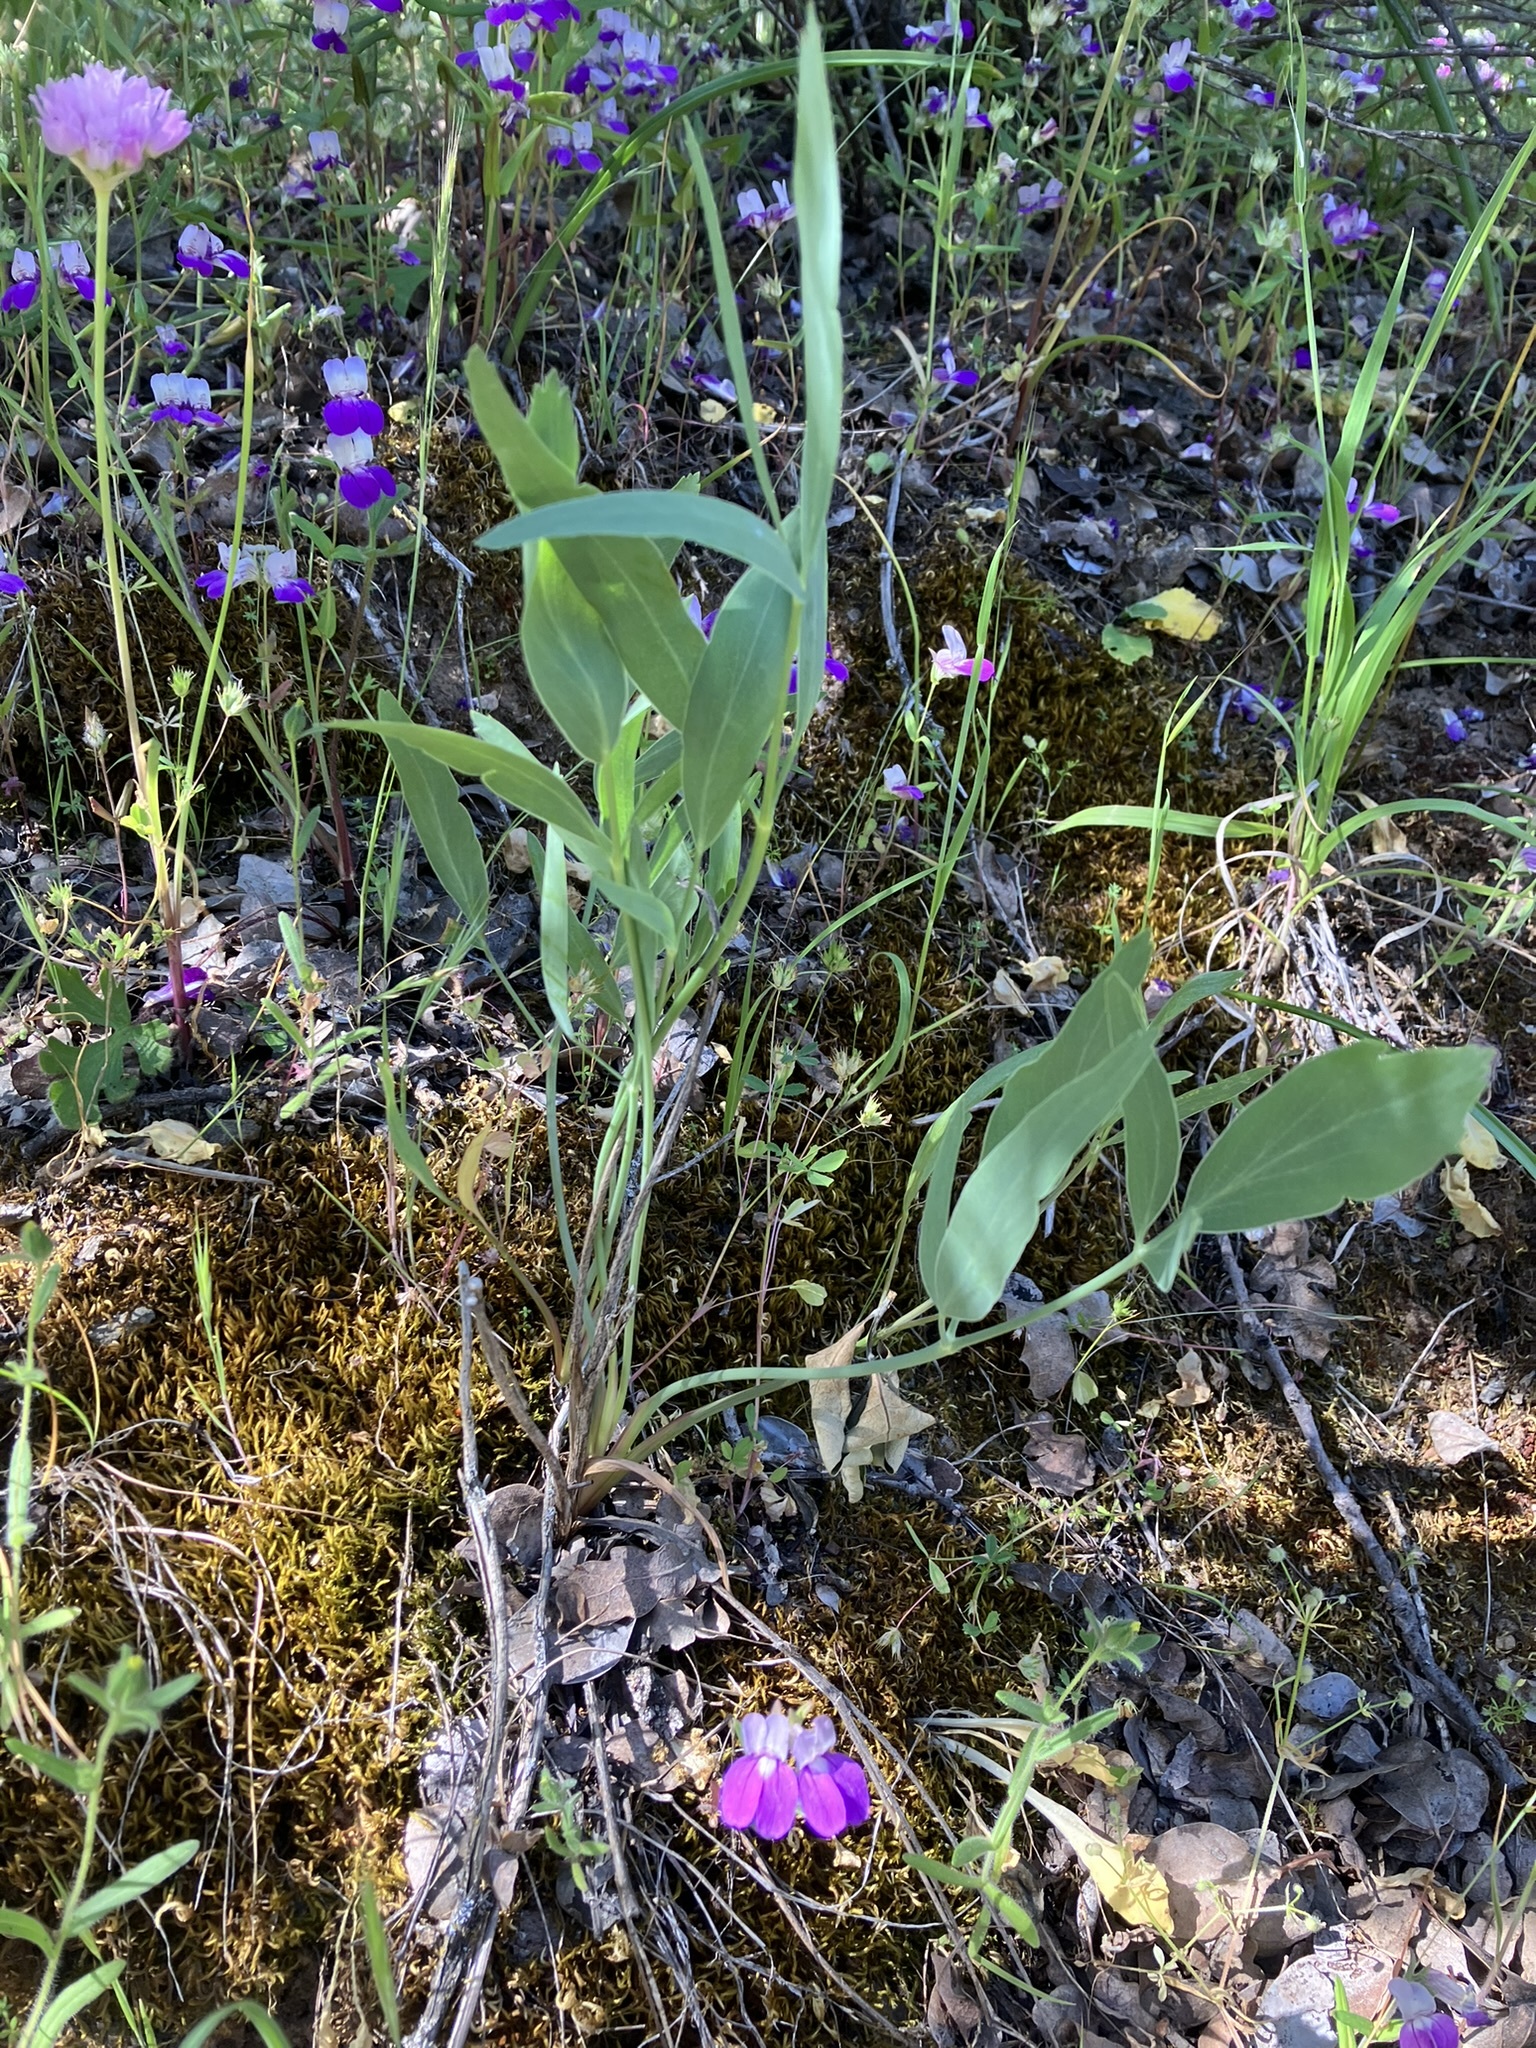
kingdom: Plantae
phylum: Tracheophyta
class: Magnoliopsida
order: Apiales
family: Apiaceae
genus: Lomatium
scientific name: Lomatium nudicaule
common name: Pestle lomatium
